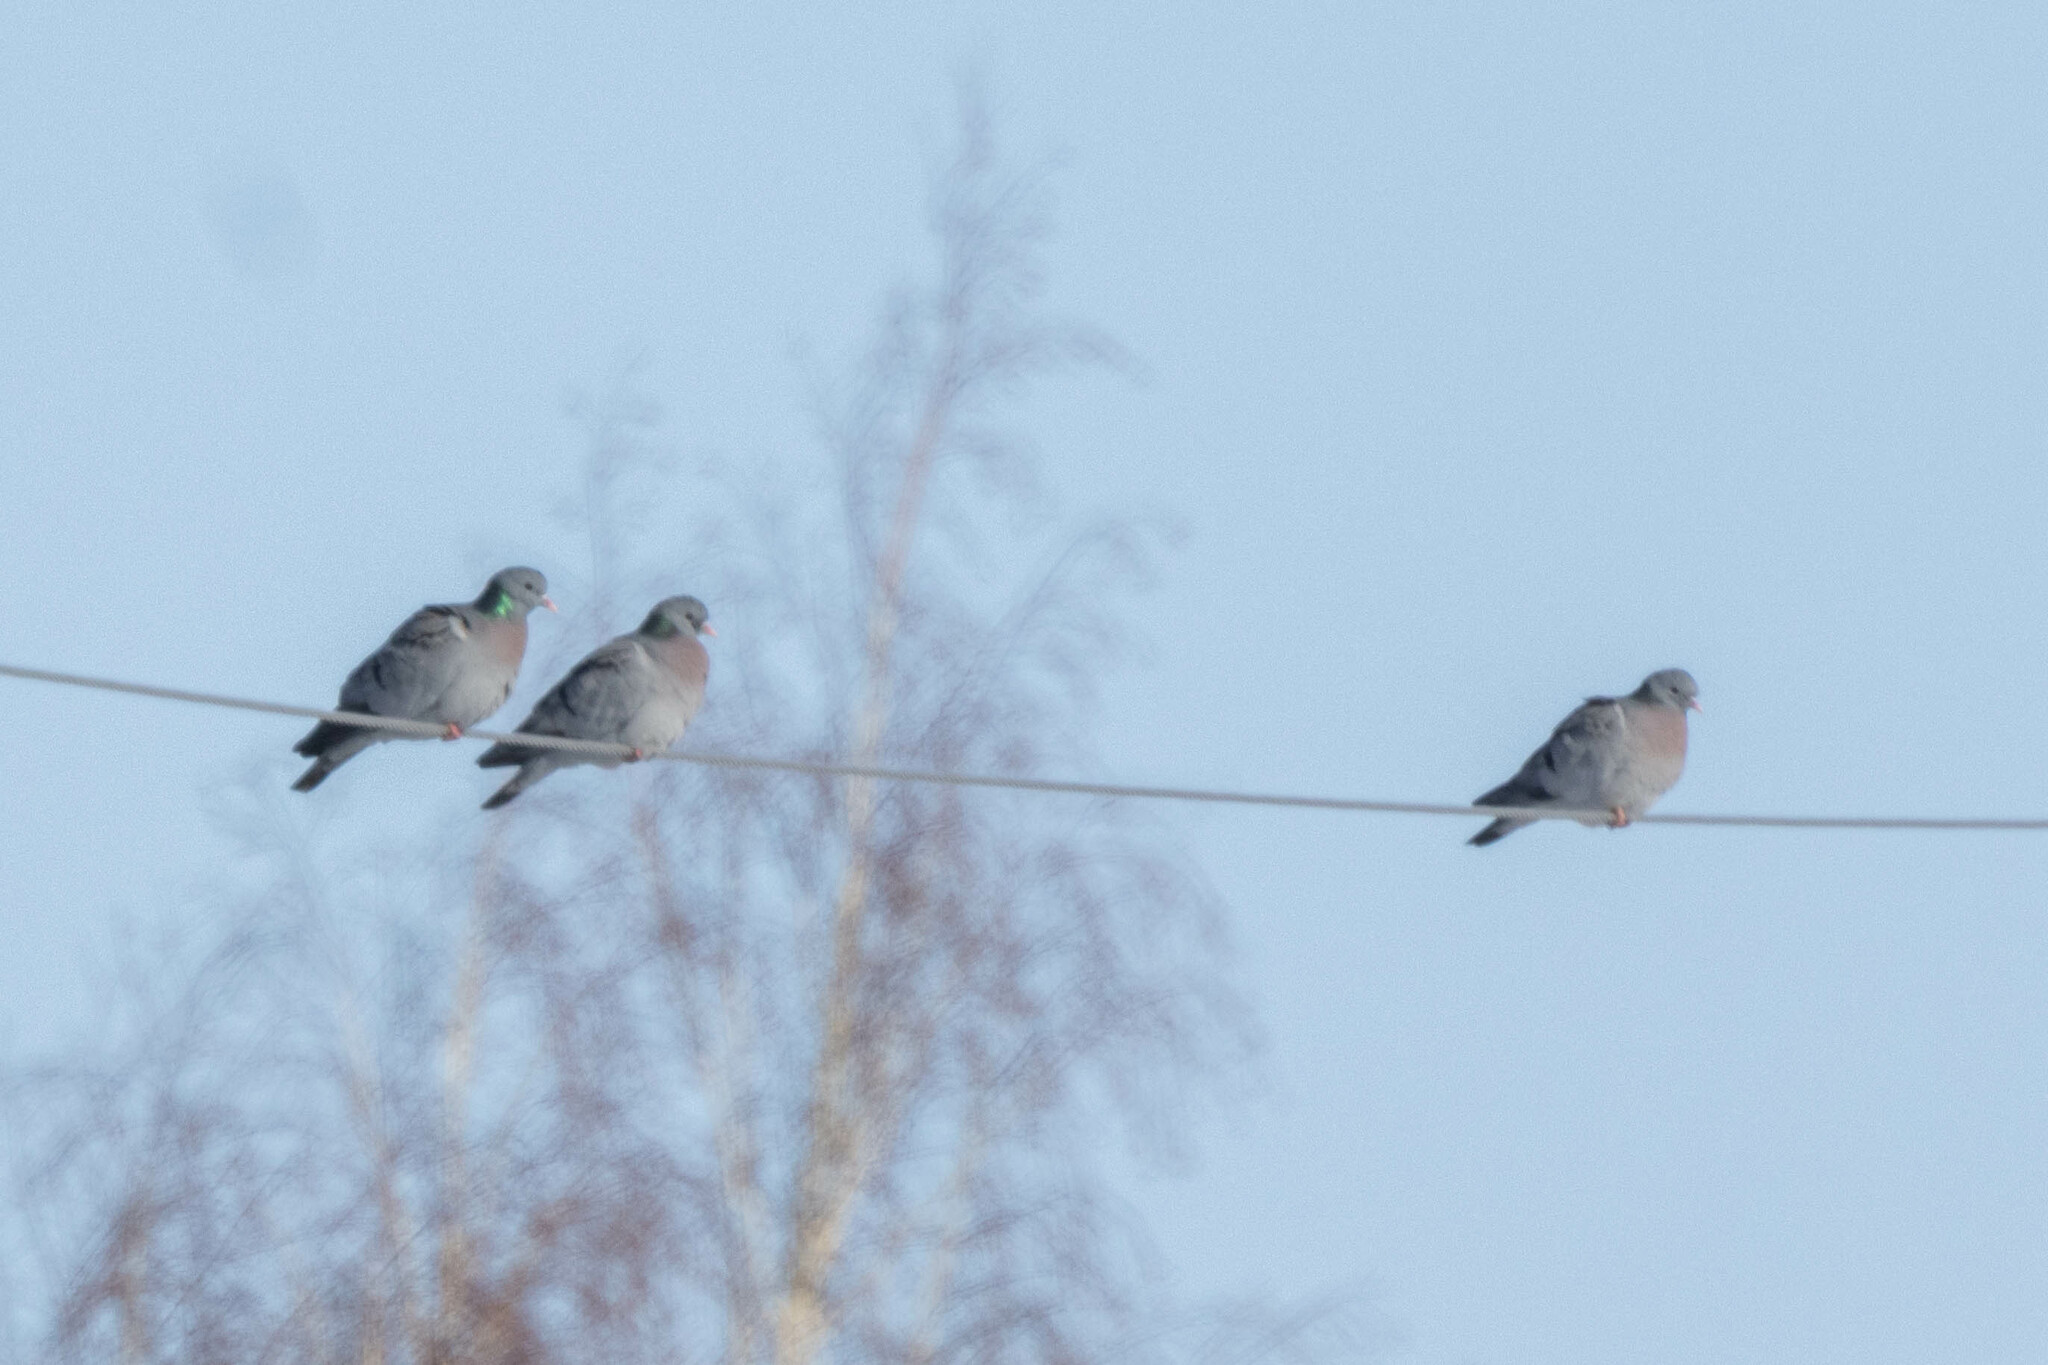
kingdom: Animalia
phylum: Chordata
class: Aves
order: Columbiformes
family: Columbidae
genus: Columba
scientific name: Columba oenas
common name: Stock dove
